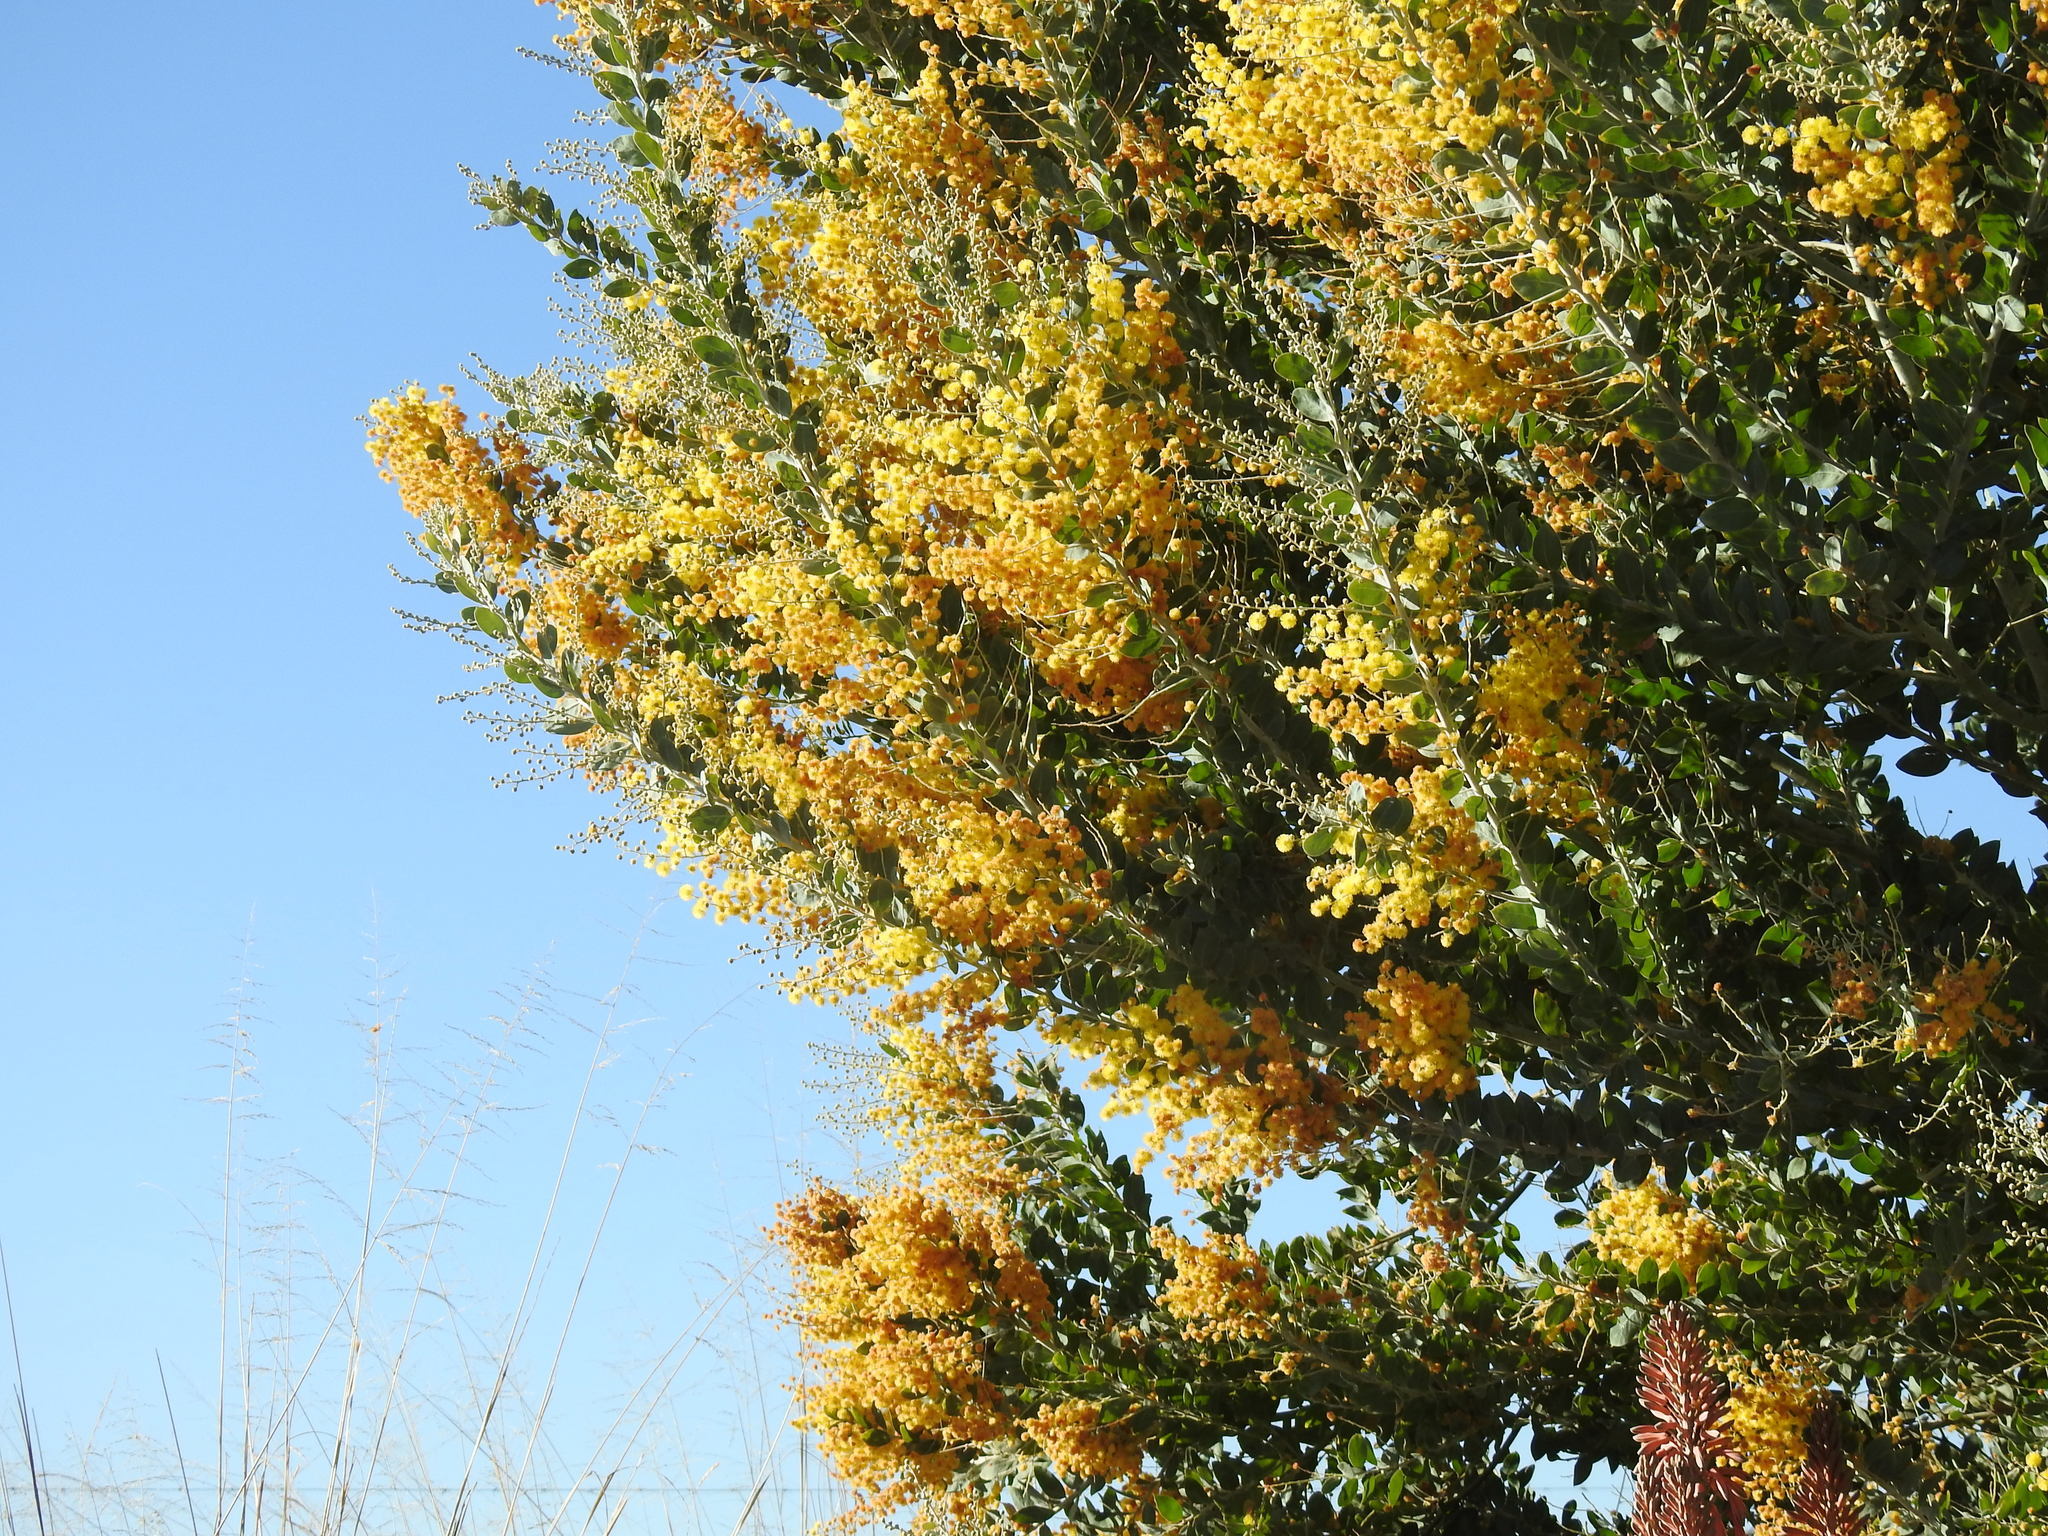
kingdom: Plantae
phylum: Tracheophyta
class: Magnoliopsida
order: Fabales
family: Fabaceae
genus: Acacia
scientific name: Acacia podalyriifolia
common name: Pearl wattle
